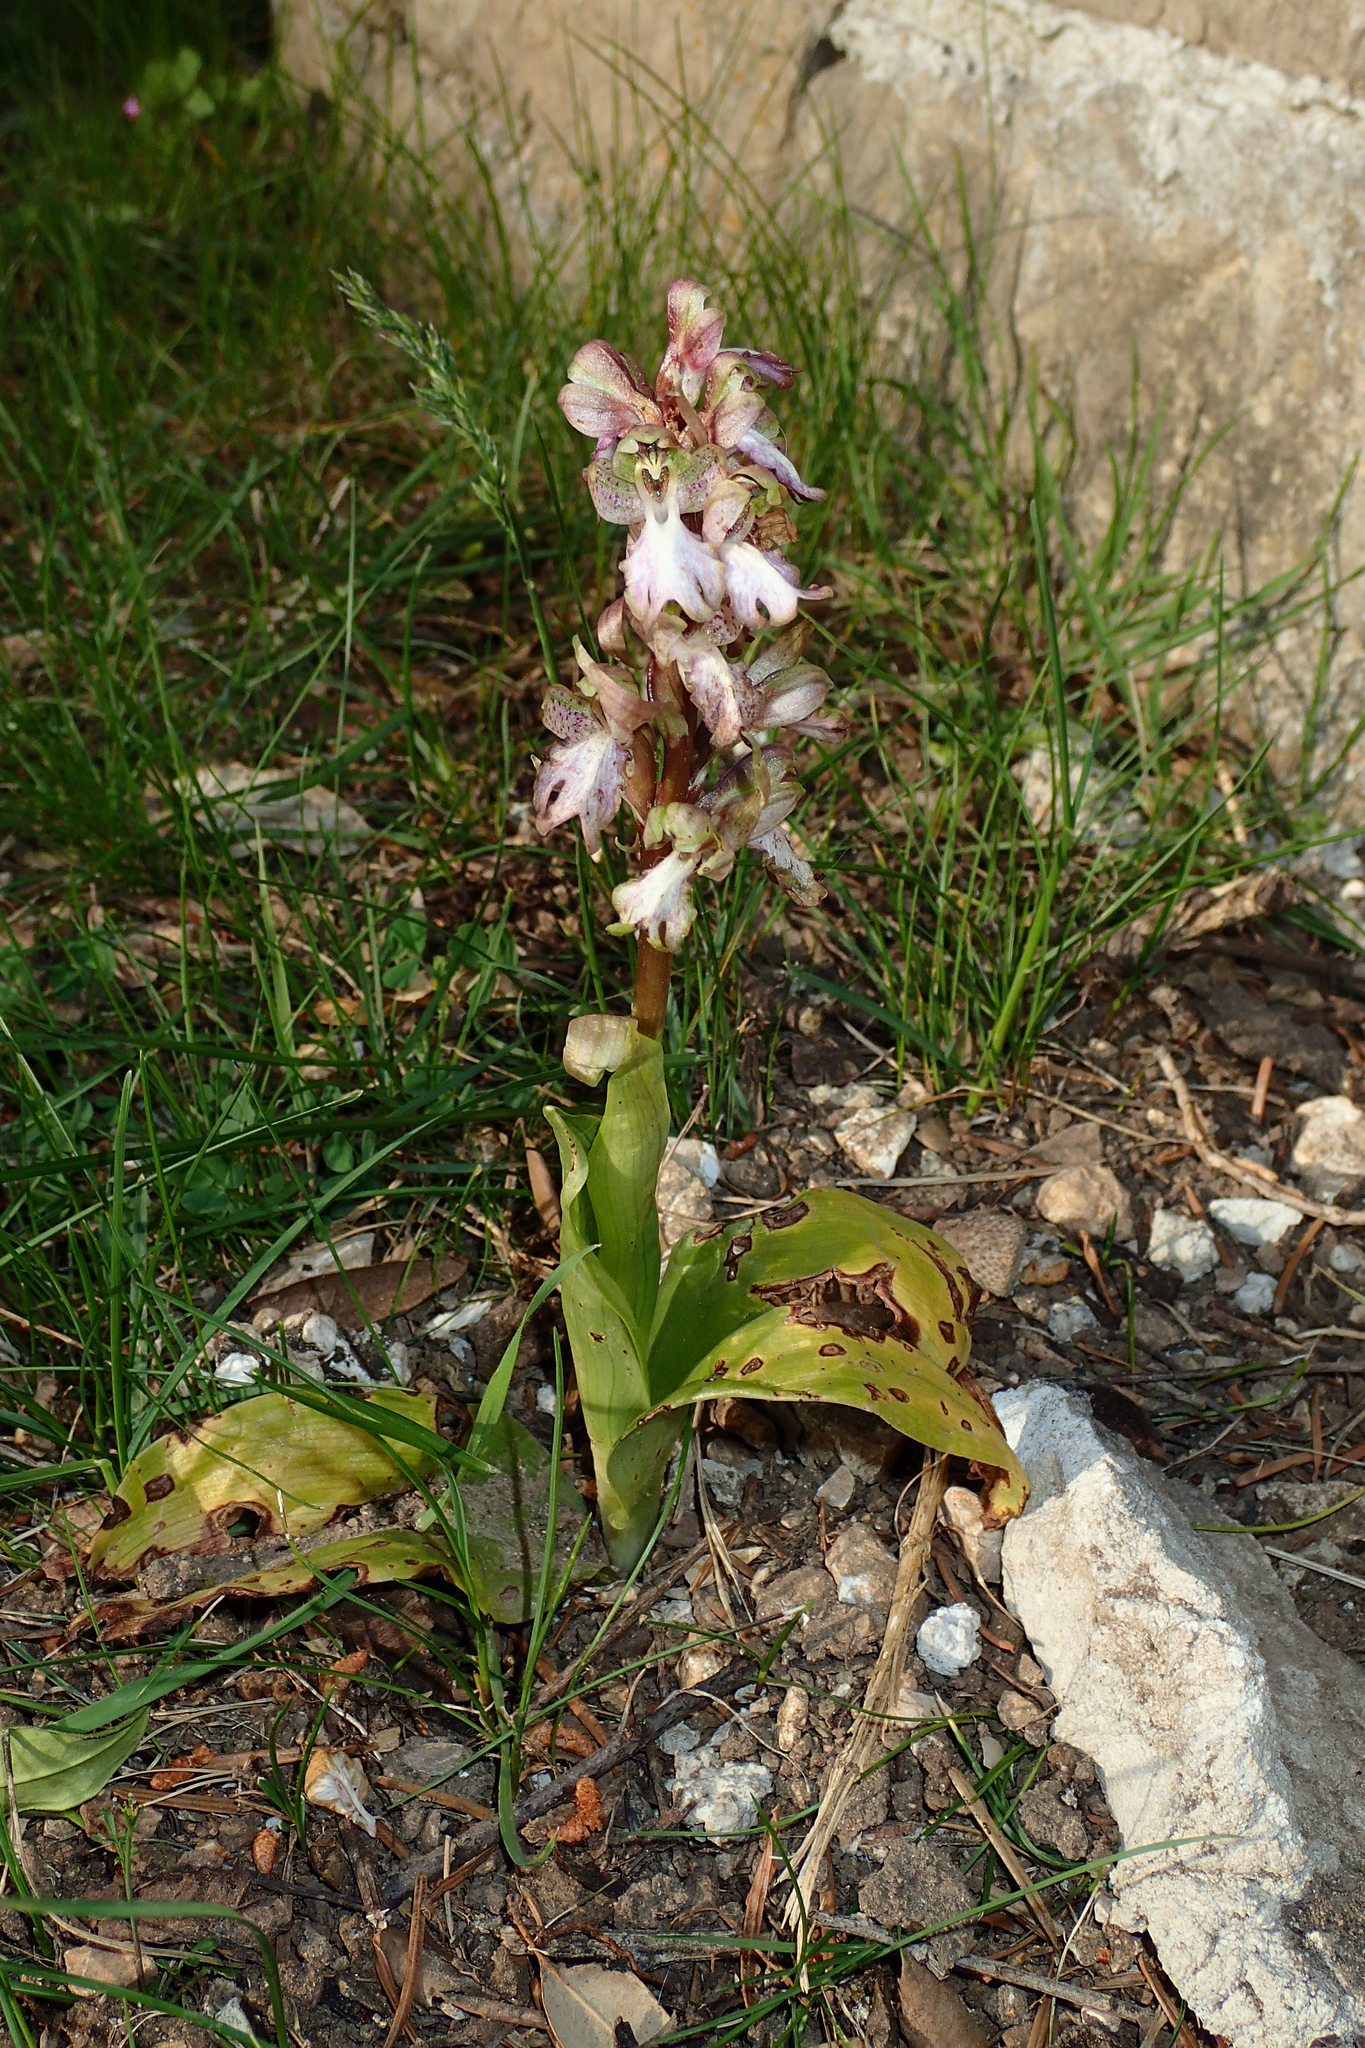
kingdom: Plantae
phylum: Tracheophyta
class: Liliopsida
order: Asparagales
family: Orchidaceae
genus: Himantoglossum
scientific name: Himantoglossum robertianum
